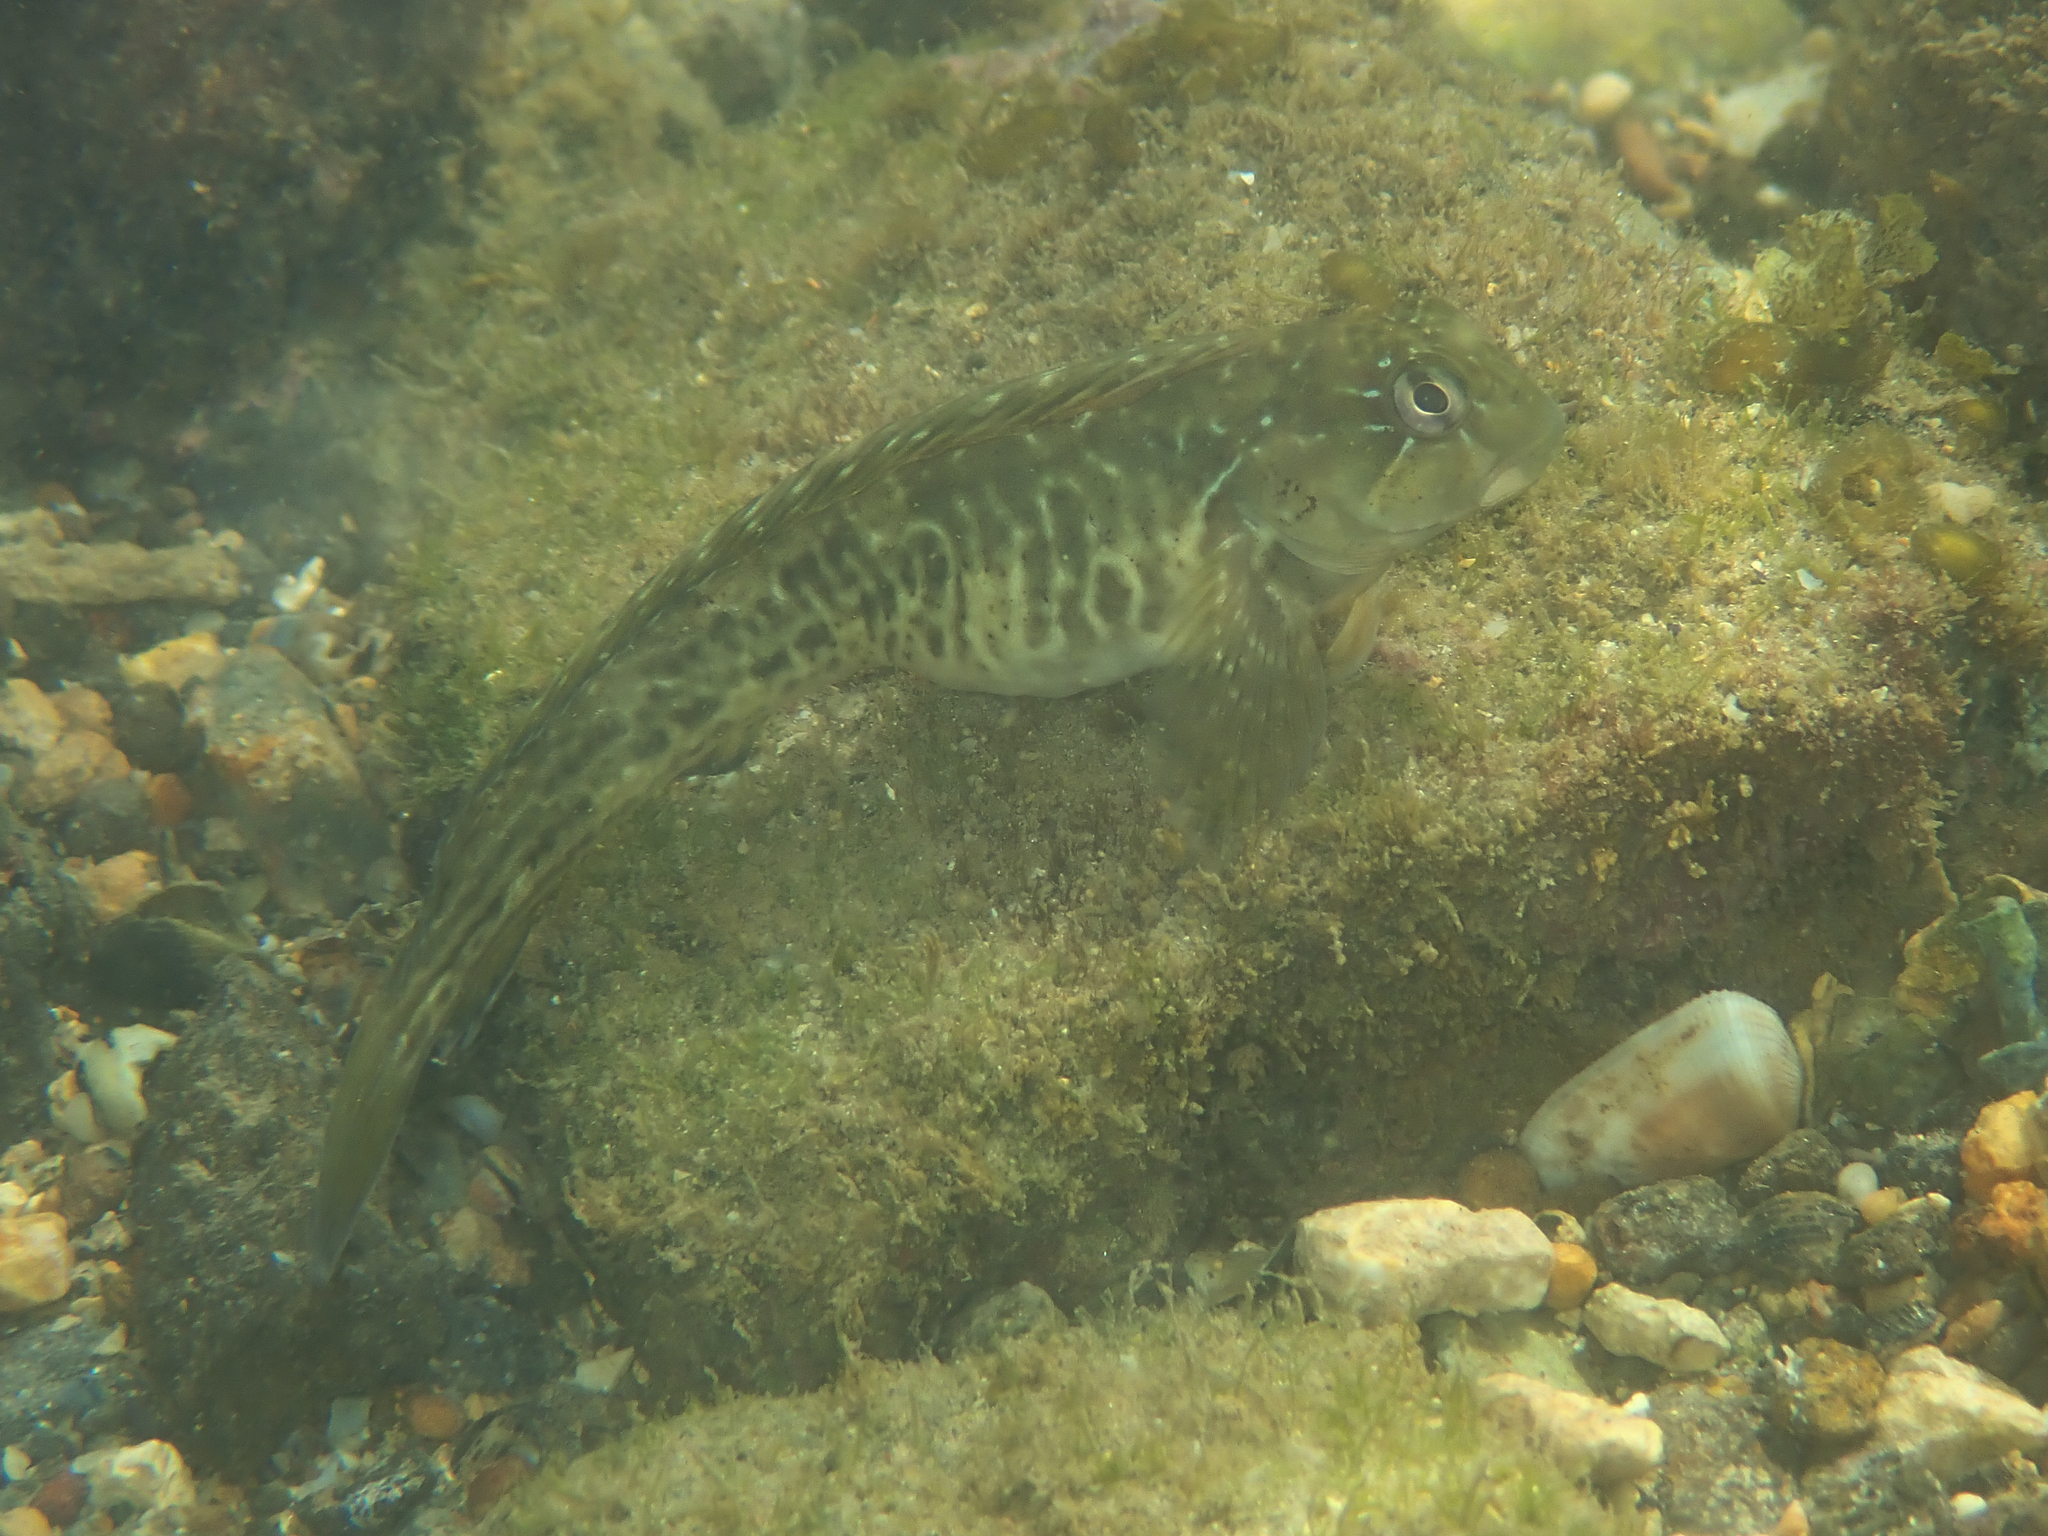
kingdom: Animalia
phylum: Chordata
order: Perciformes
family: Blenniidae
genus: Parablennius
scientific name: Parablennius parvicornis
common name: Rock-pool blenny
